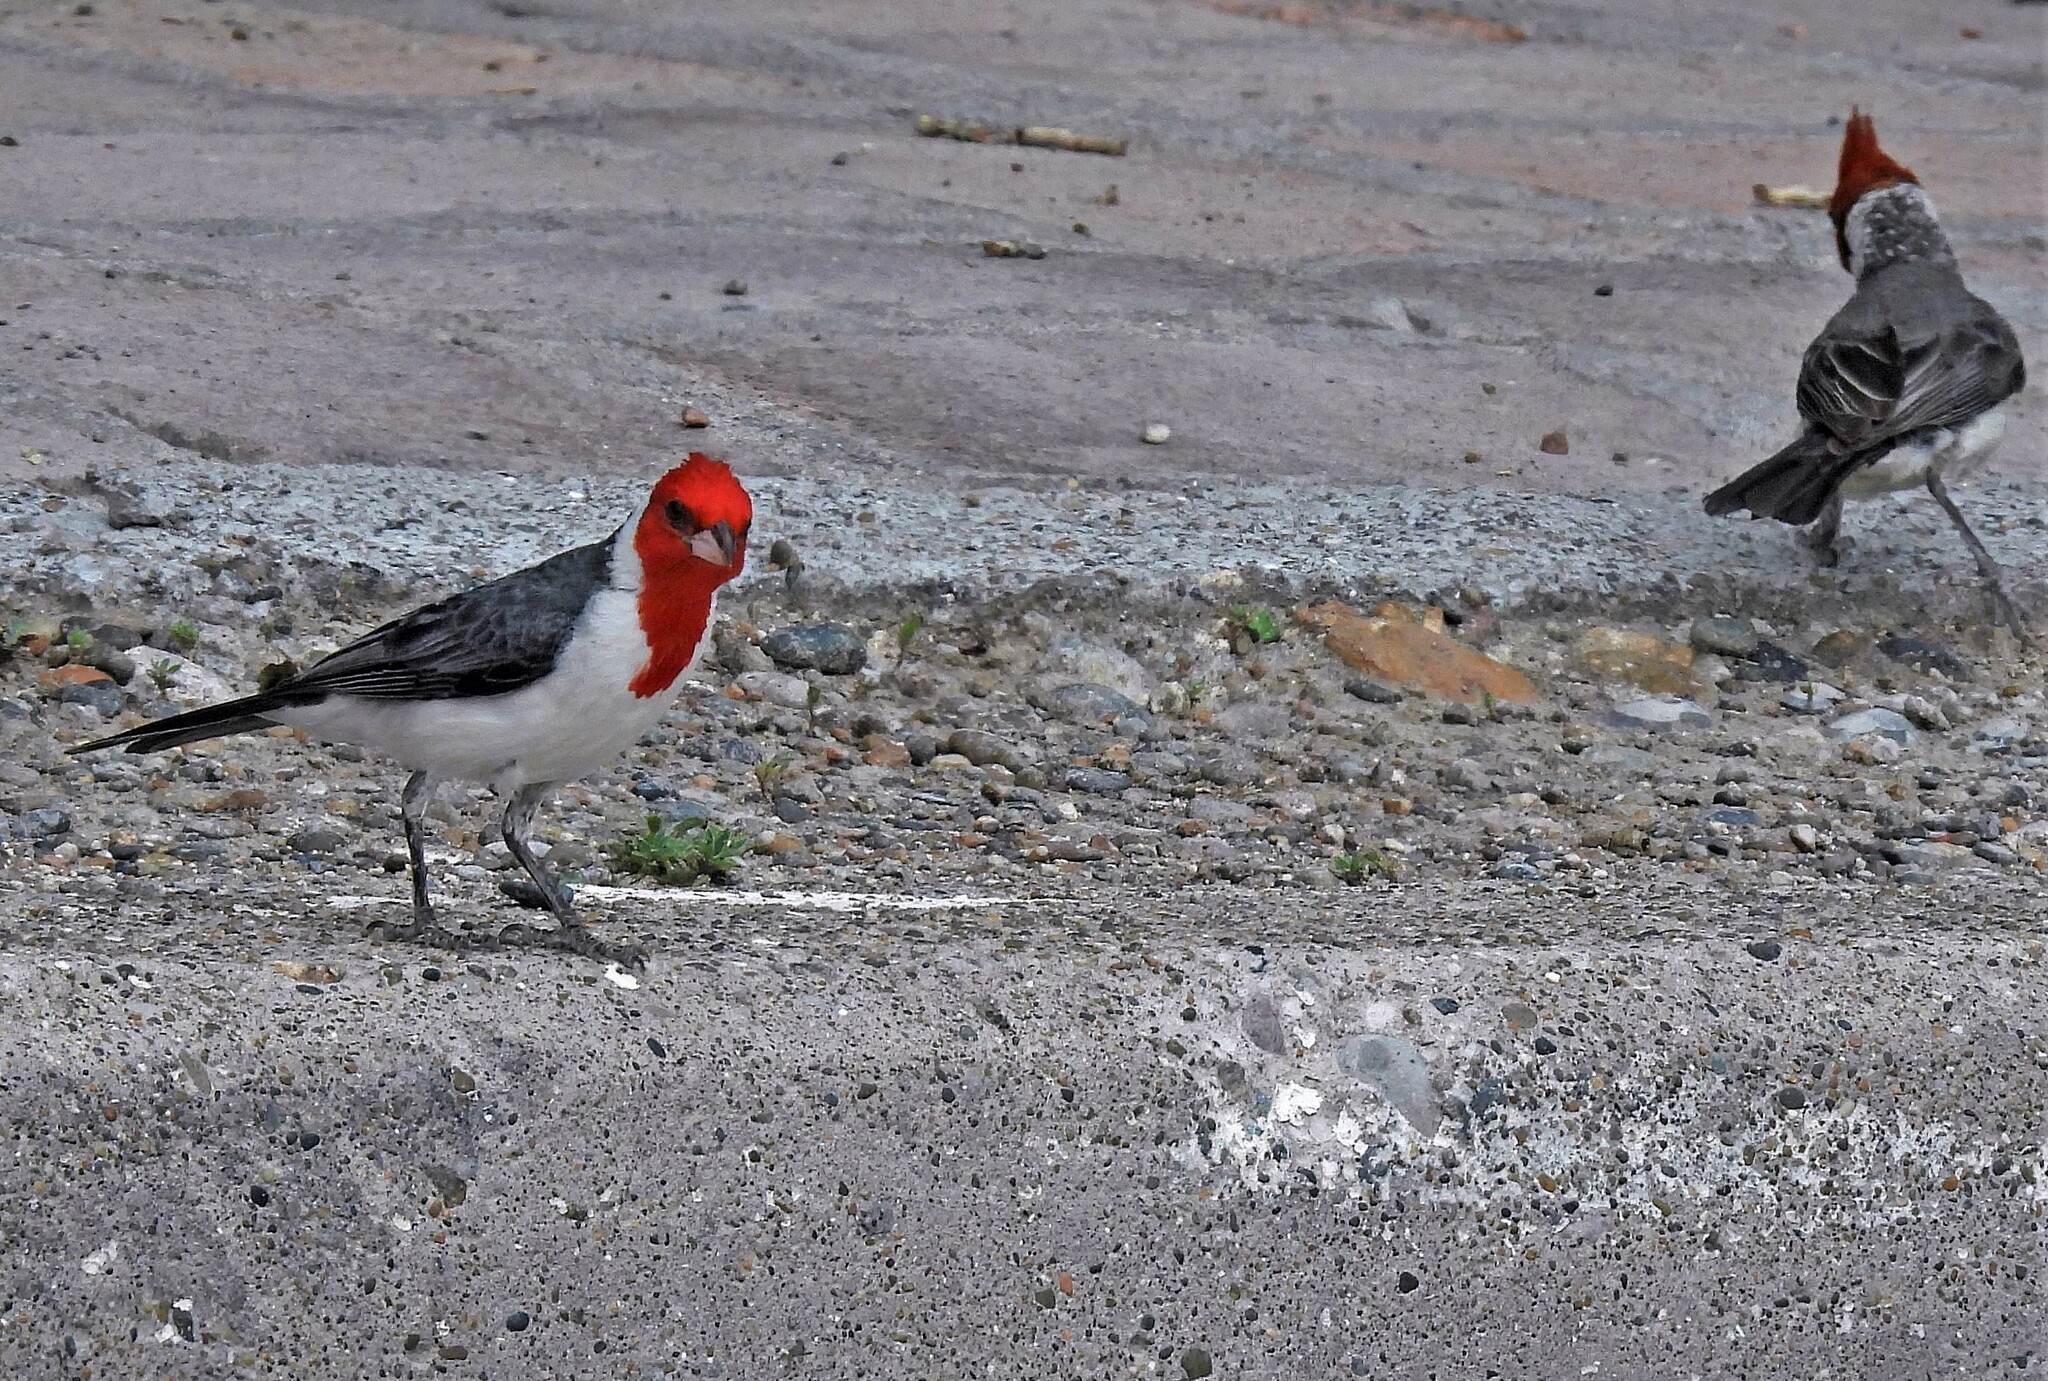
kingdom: Animalia
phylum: Chordata
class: Aves
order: Passeriformes
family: Thraupidae
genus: Paroaria
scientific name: Paroaria coronata
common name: Red-crested cardinal
